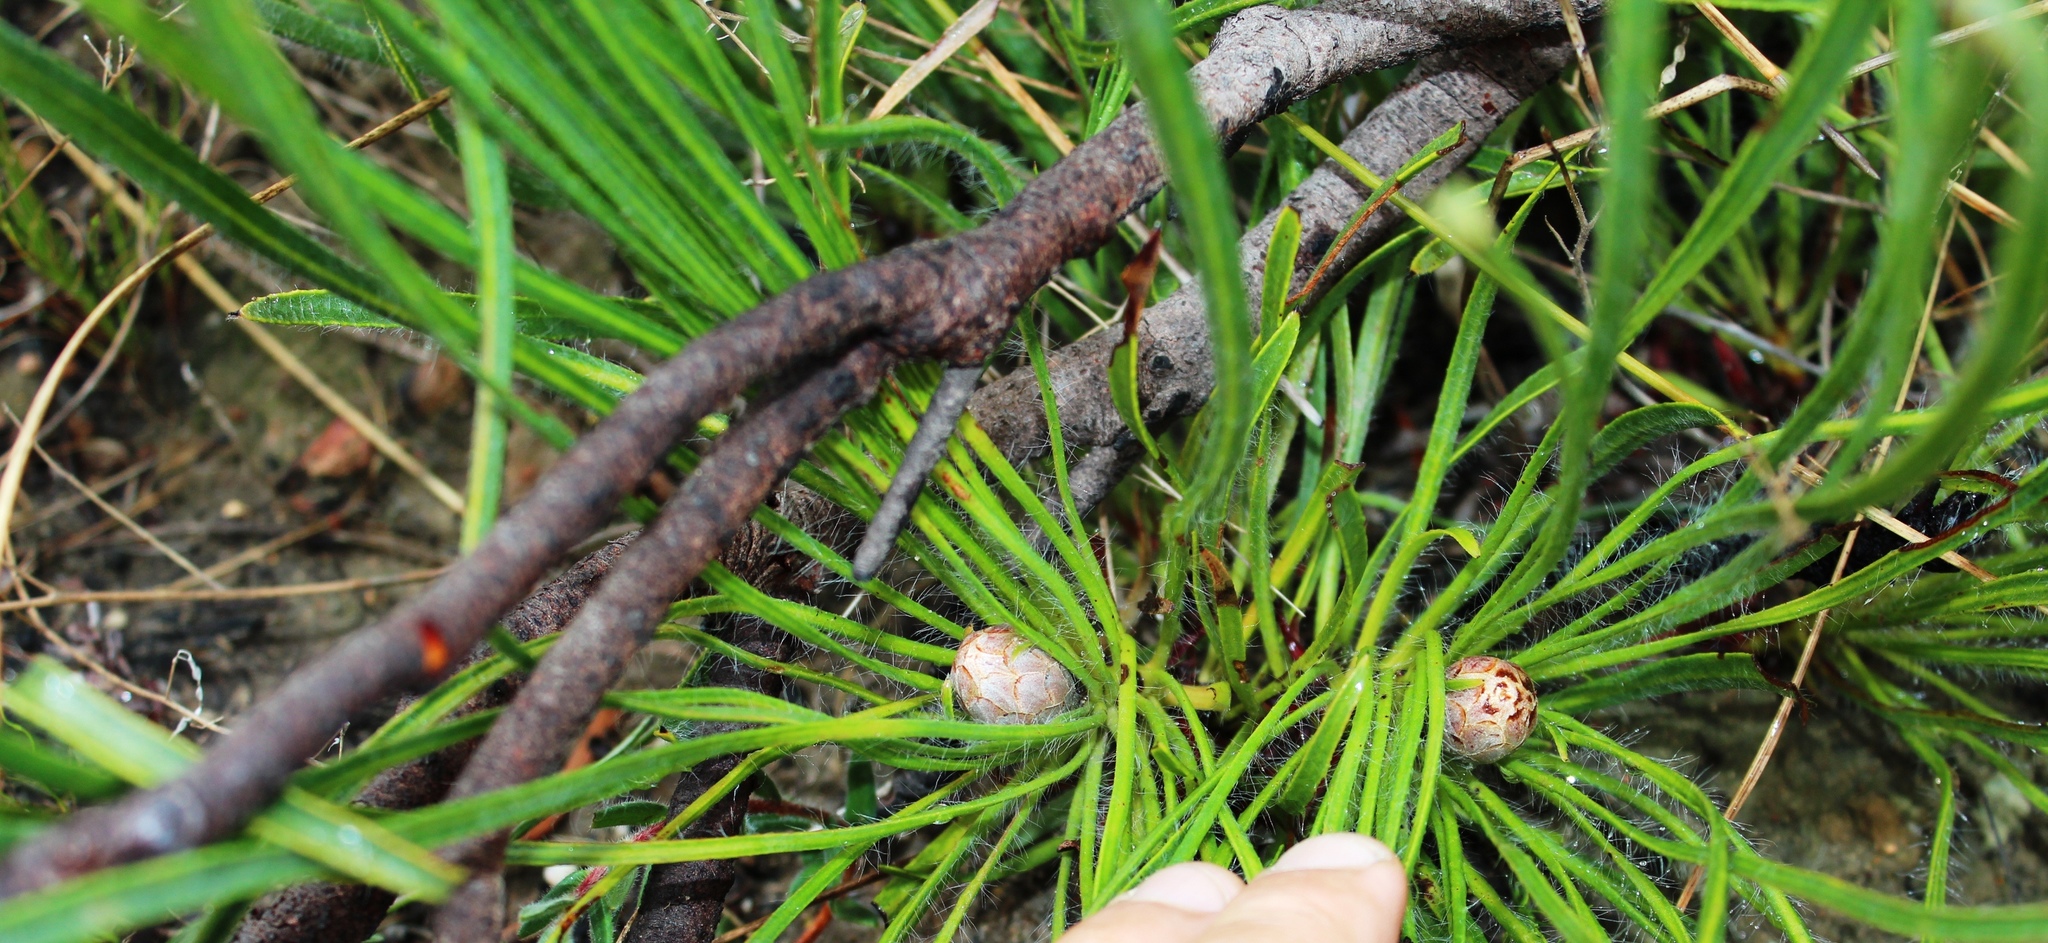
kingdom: Plantae
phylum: Tracheophyta
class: Magnoliopsida
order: Proteales
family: Proteaceae
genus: Protea
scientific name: Protea scorzonerifolia
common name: Channel-leaf sugarbush
